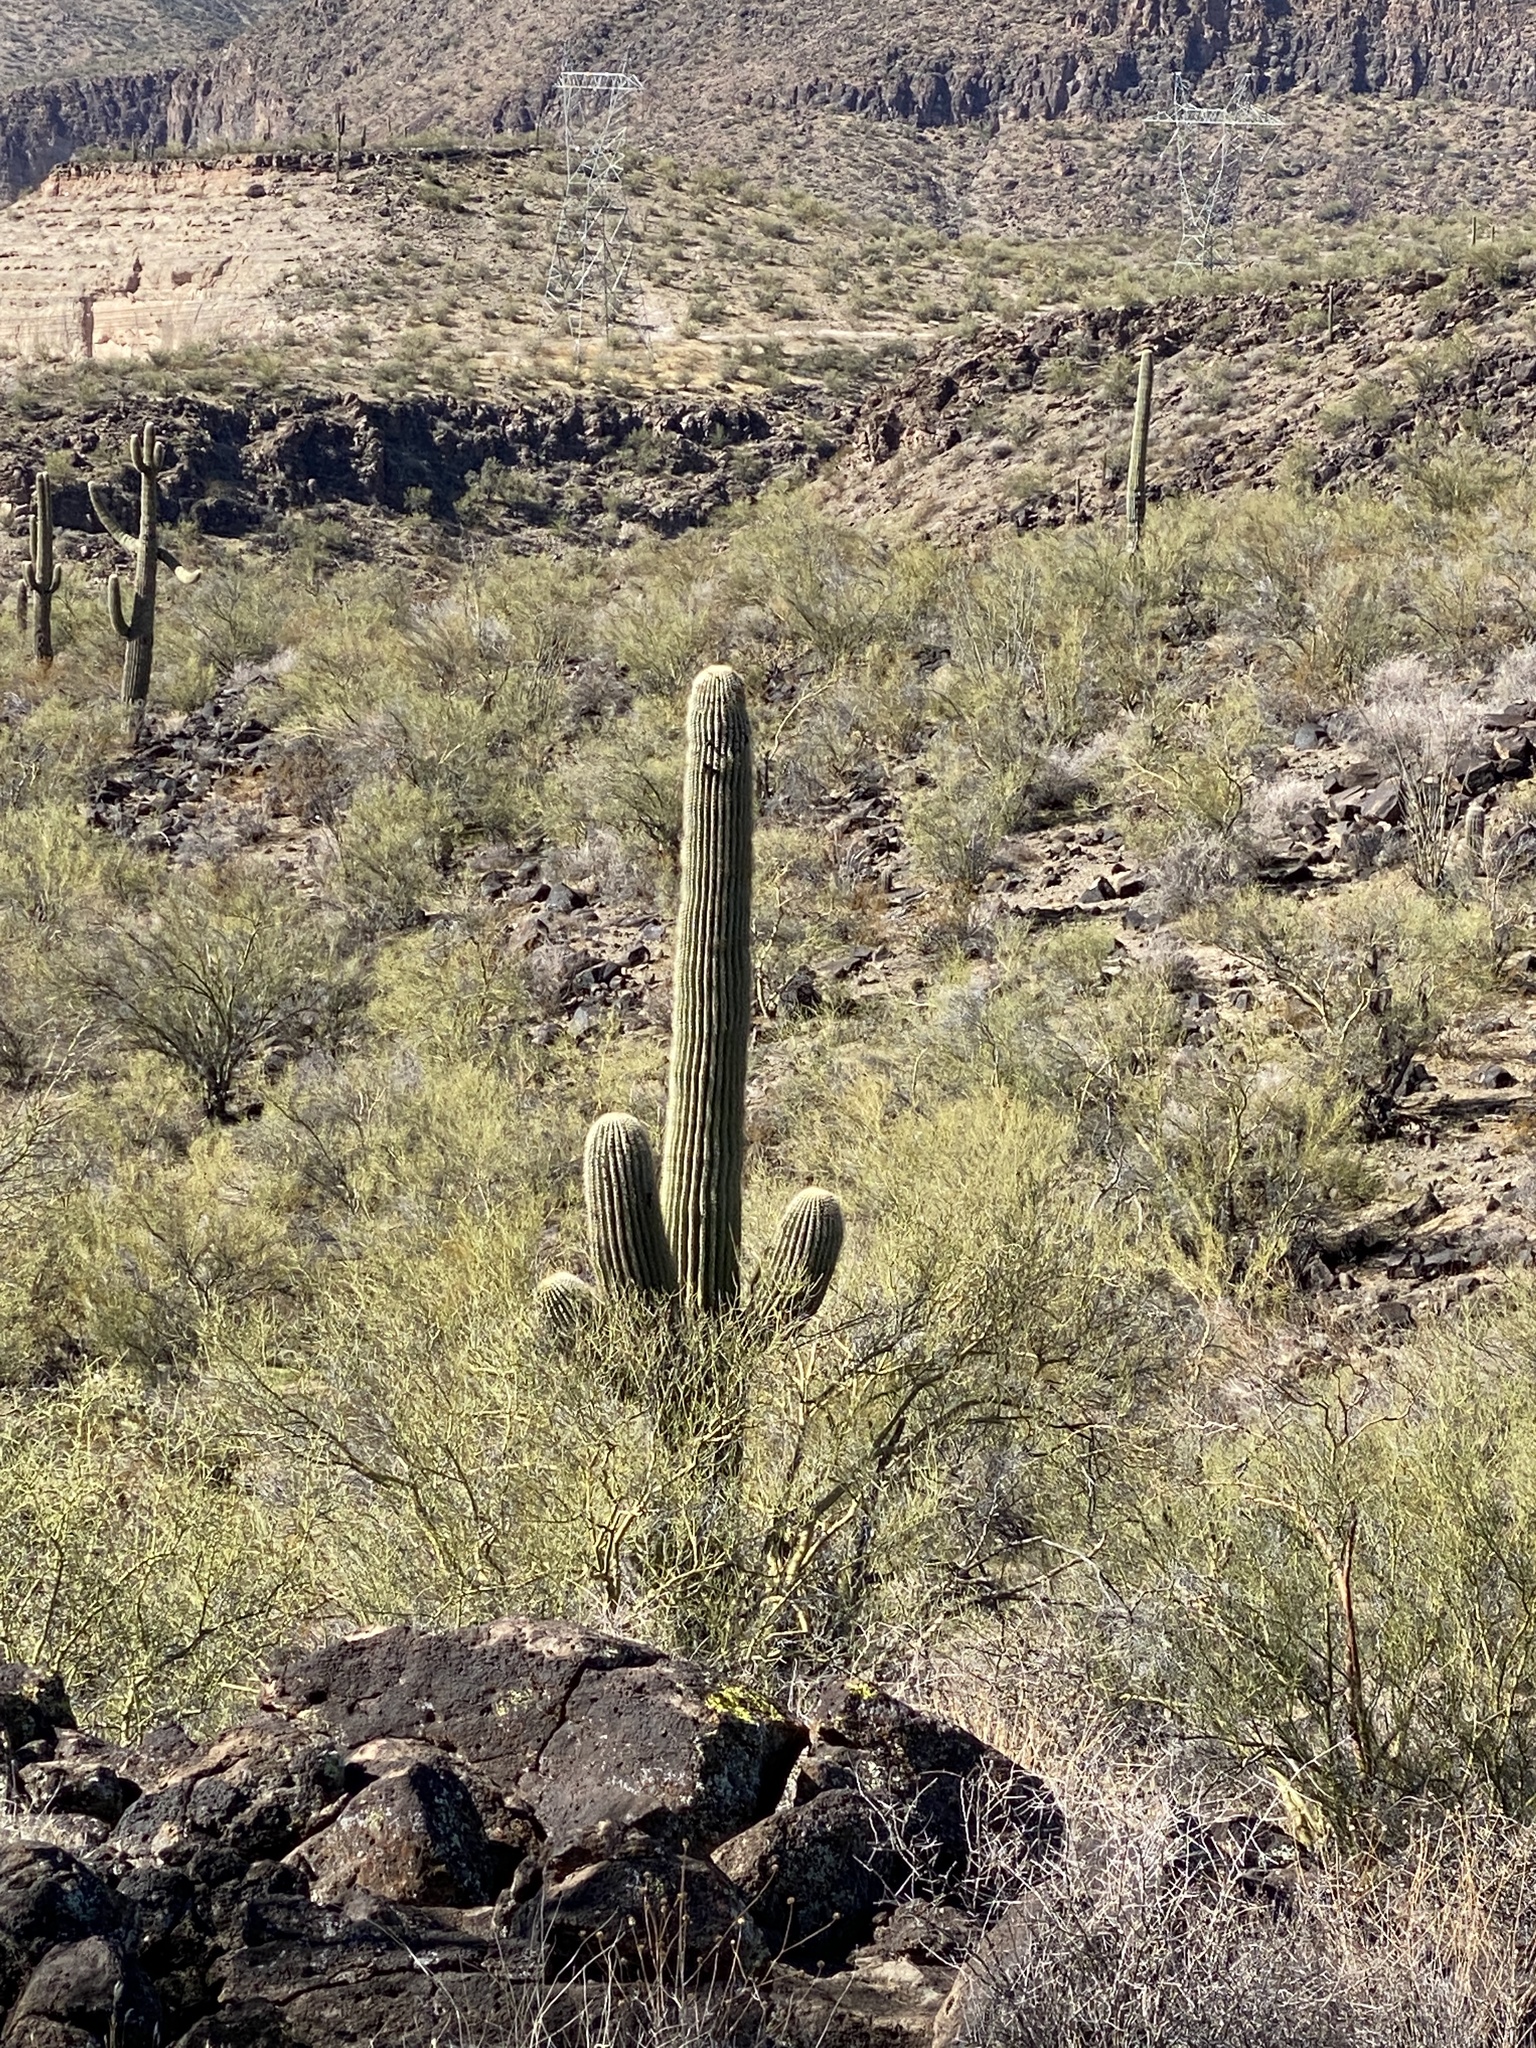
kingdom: Plantae
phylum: Tracheophyta
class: Magnoliopsida
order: Caryophyllales
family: Cactaceae
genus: Carnegiea
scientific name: Carnegiea gigantea
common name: Saguaro
